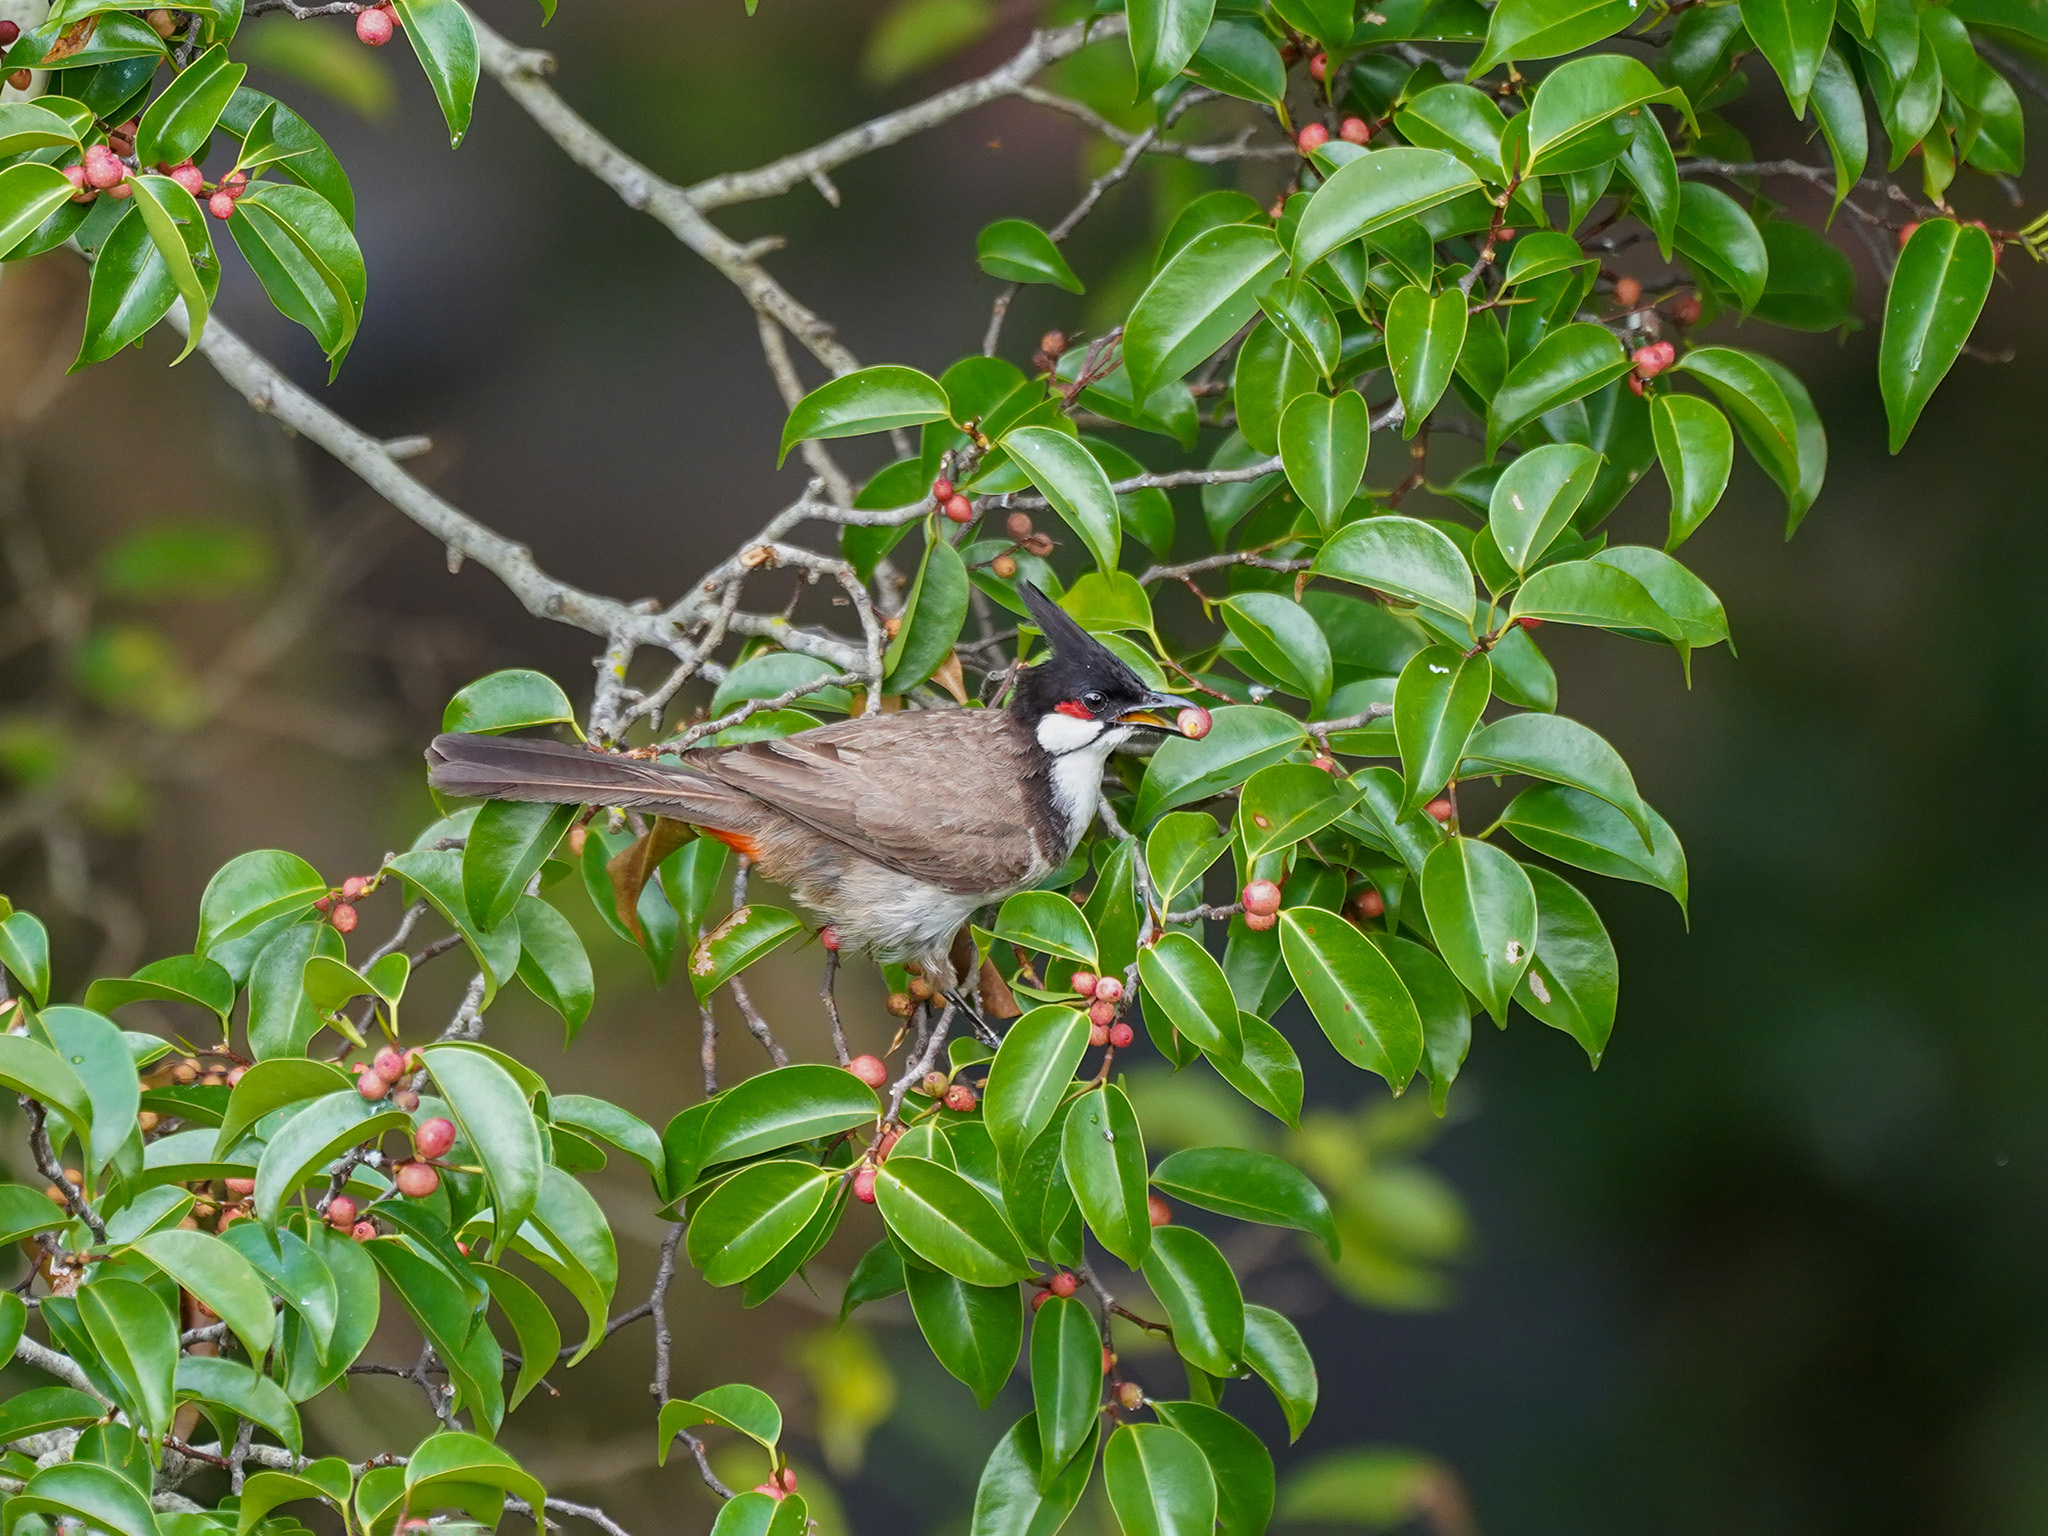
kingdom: Animalia
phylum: Chordata
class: Aves
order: Passeriformes
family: Pycnonotidae
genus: Pycnonotus
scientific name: Pycnonotus jocosus
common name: Red-whiskered bulbul
